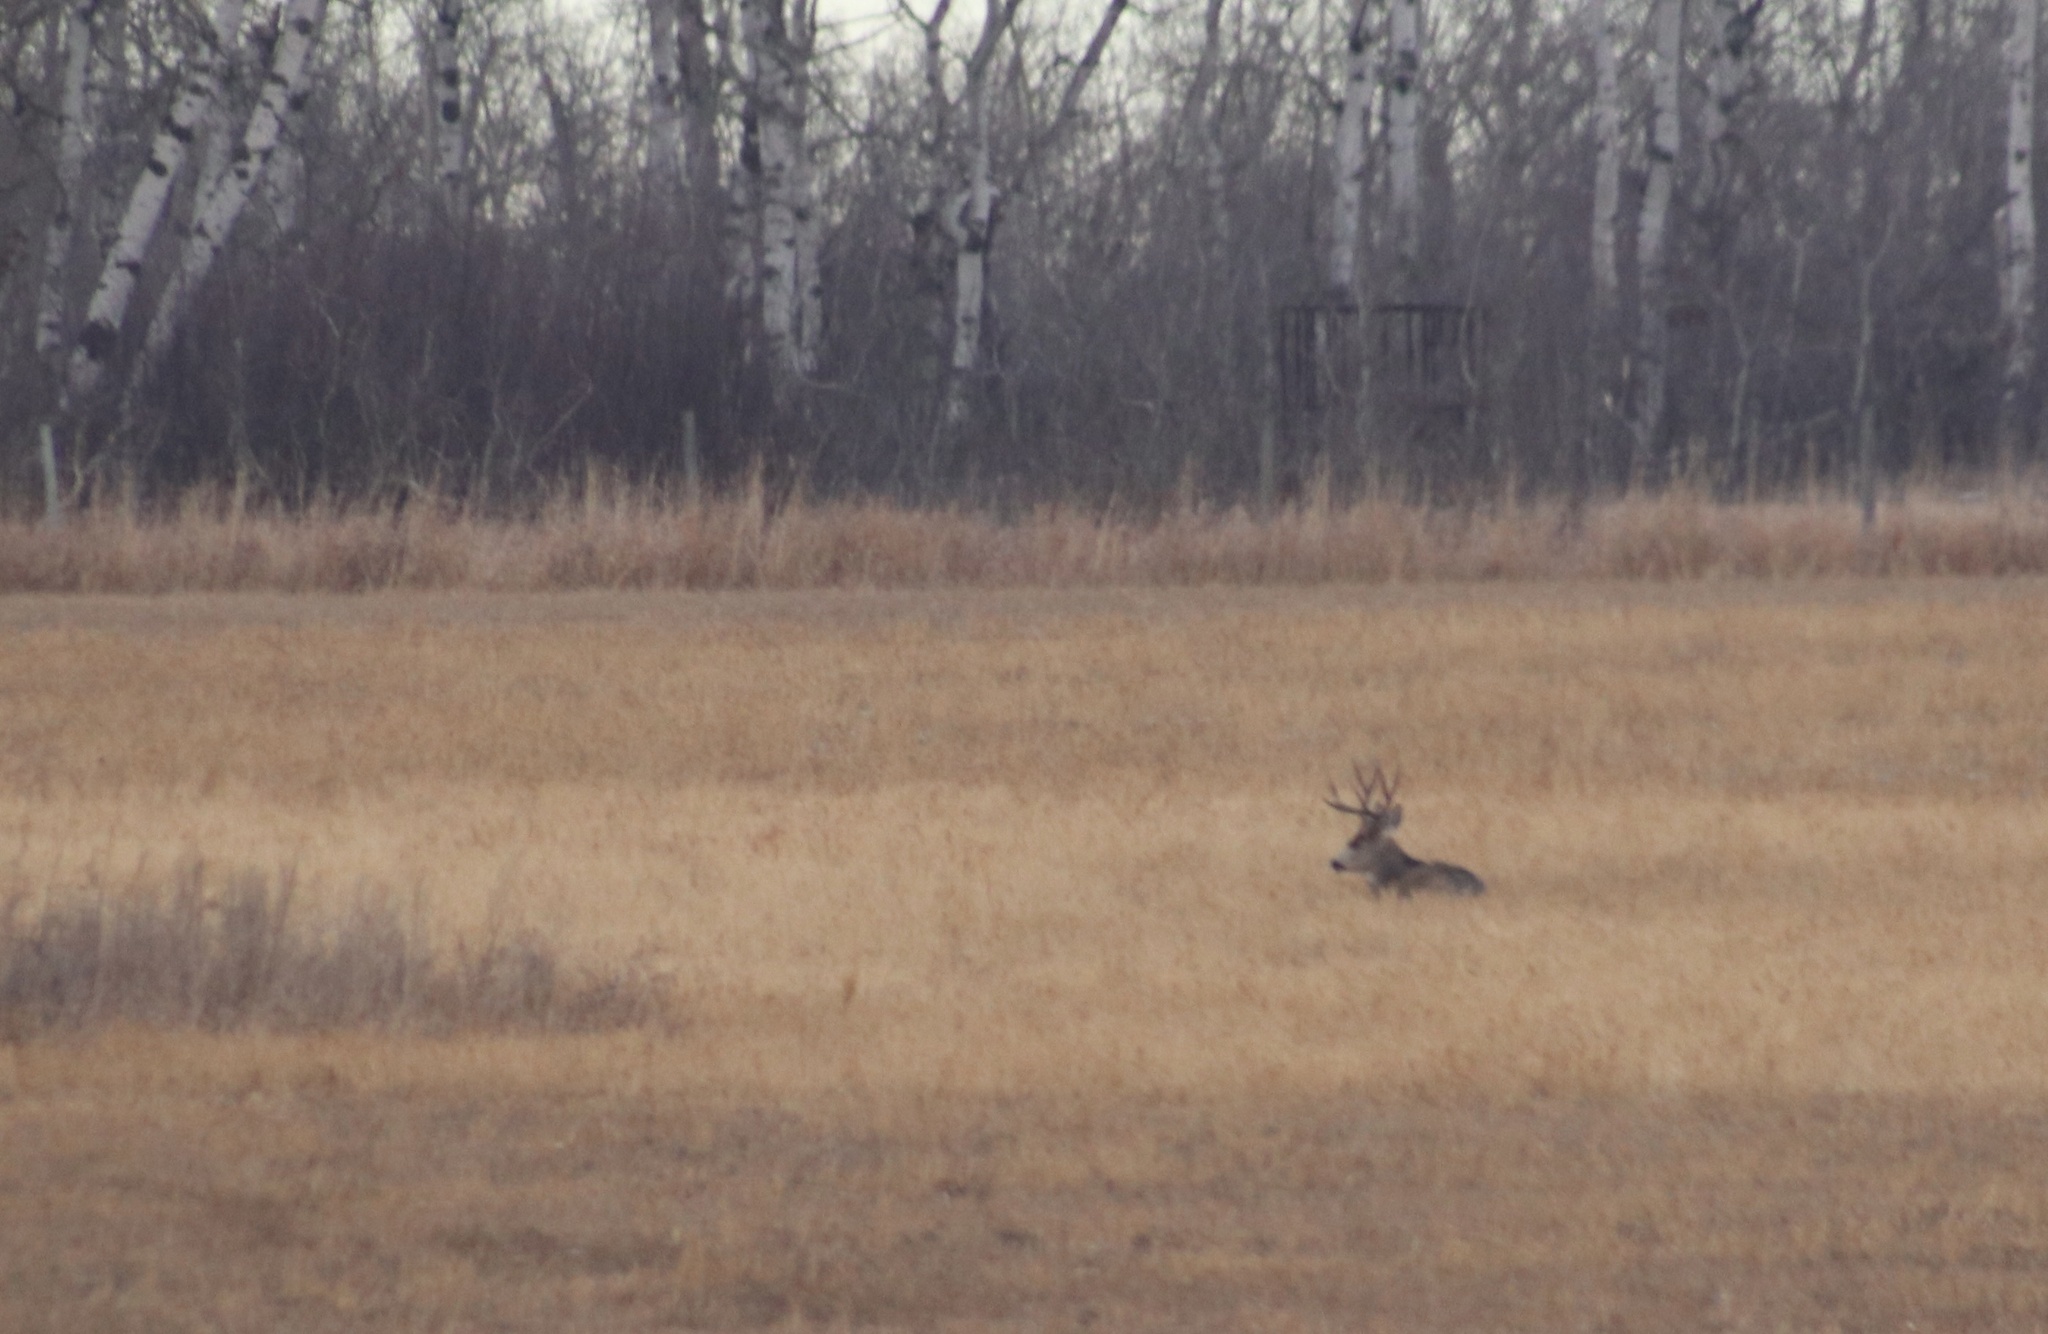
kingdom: Animalia
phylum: Chordata
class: Mammalia
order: Artiodactyla
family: Cervidae
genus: Odocoileus
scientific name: Odocoileus hemionus
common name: Mule deer
